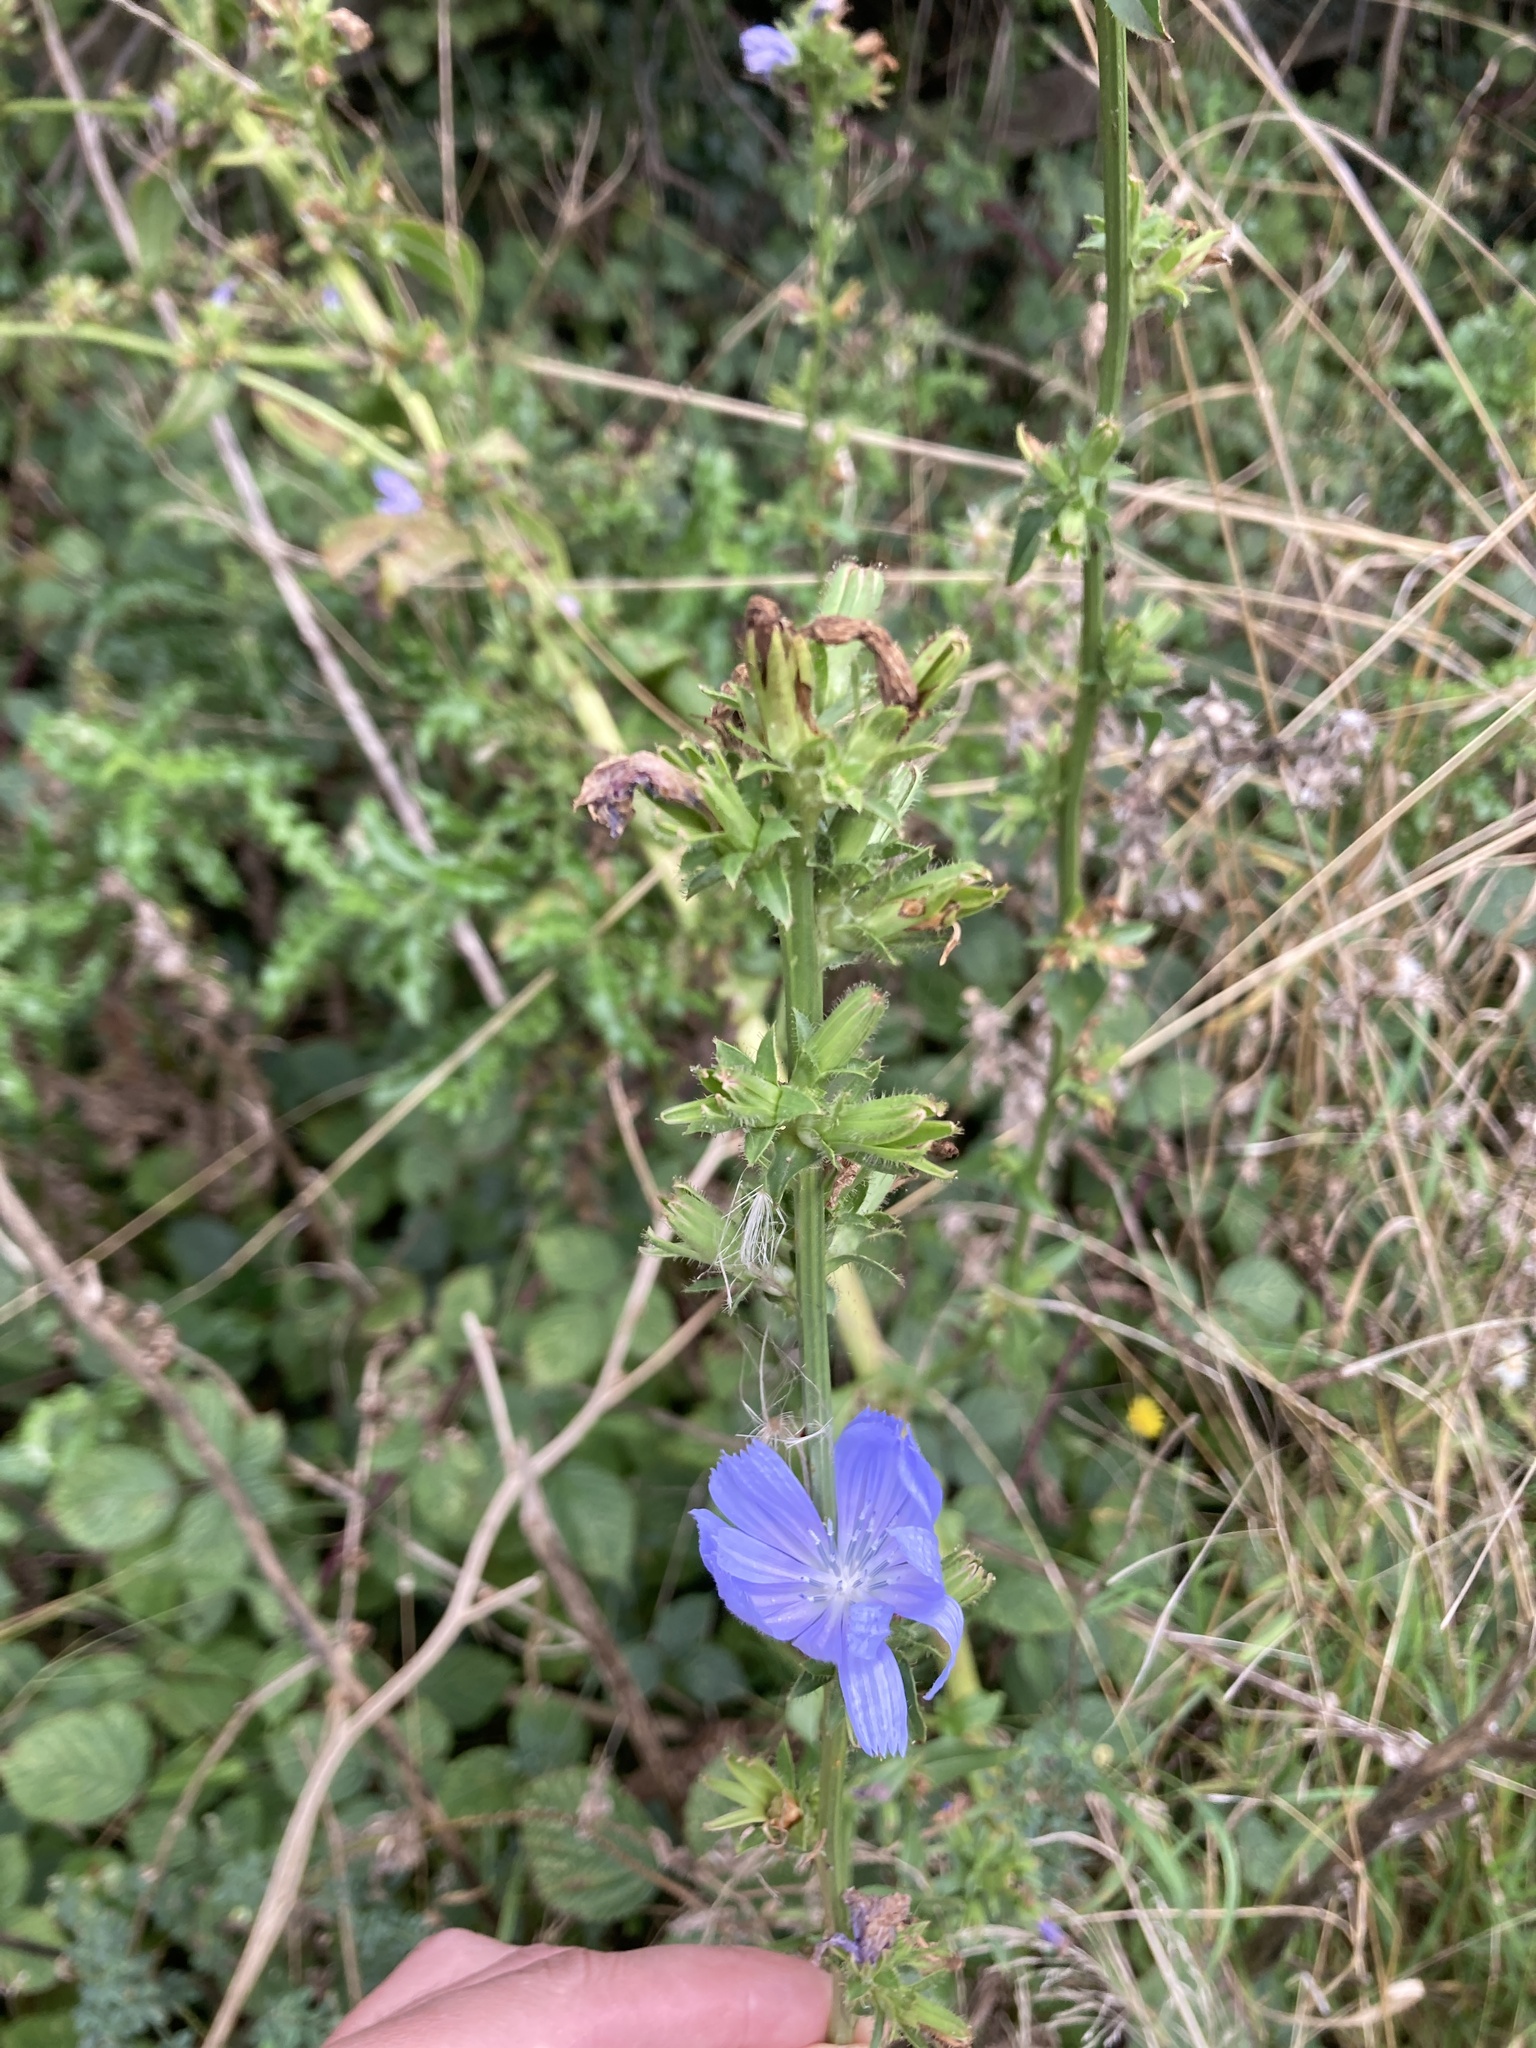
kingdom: Plantae
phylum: Tracheophyta
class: Magnoliopsida
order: Asterales
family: Asteraceae
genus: Cichorium
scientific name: Cichorium intybus
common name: Chicory
